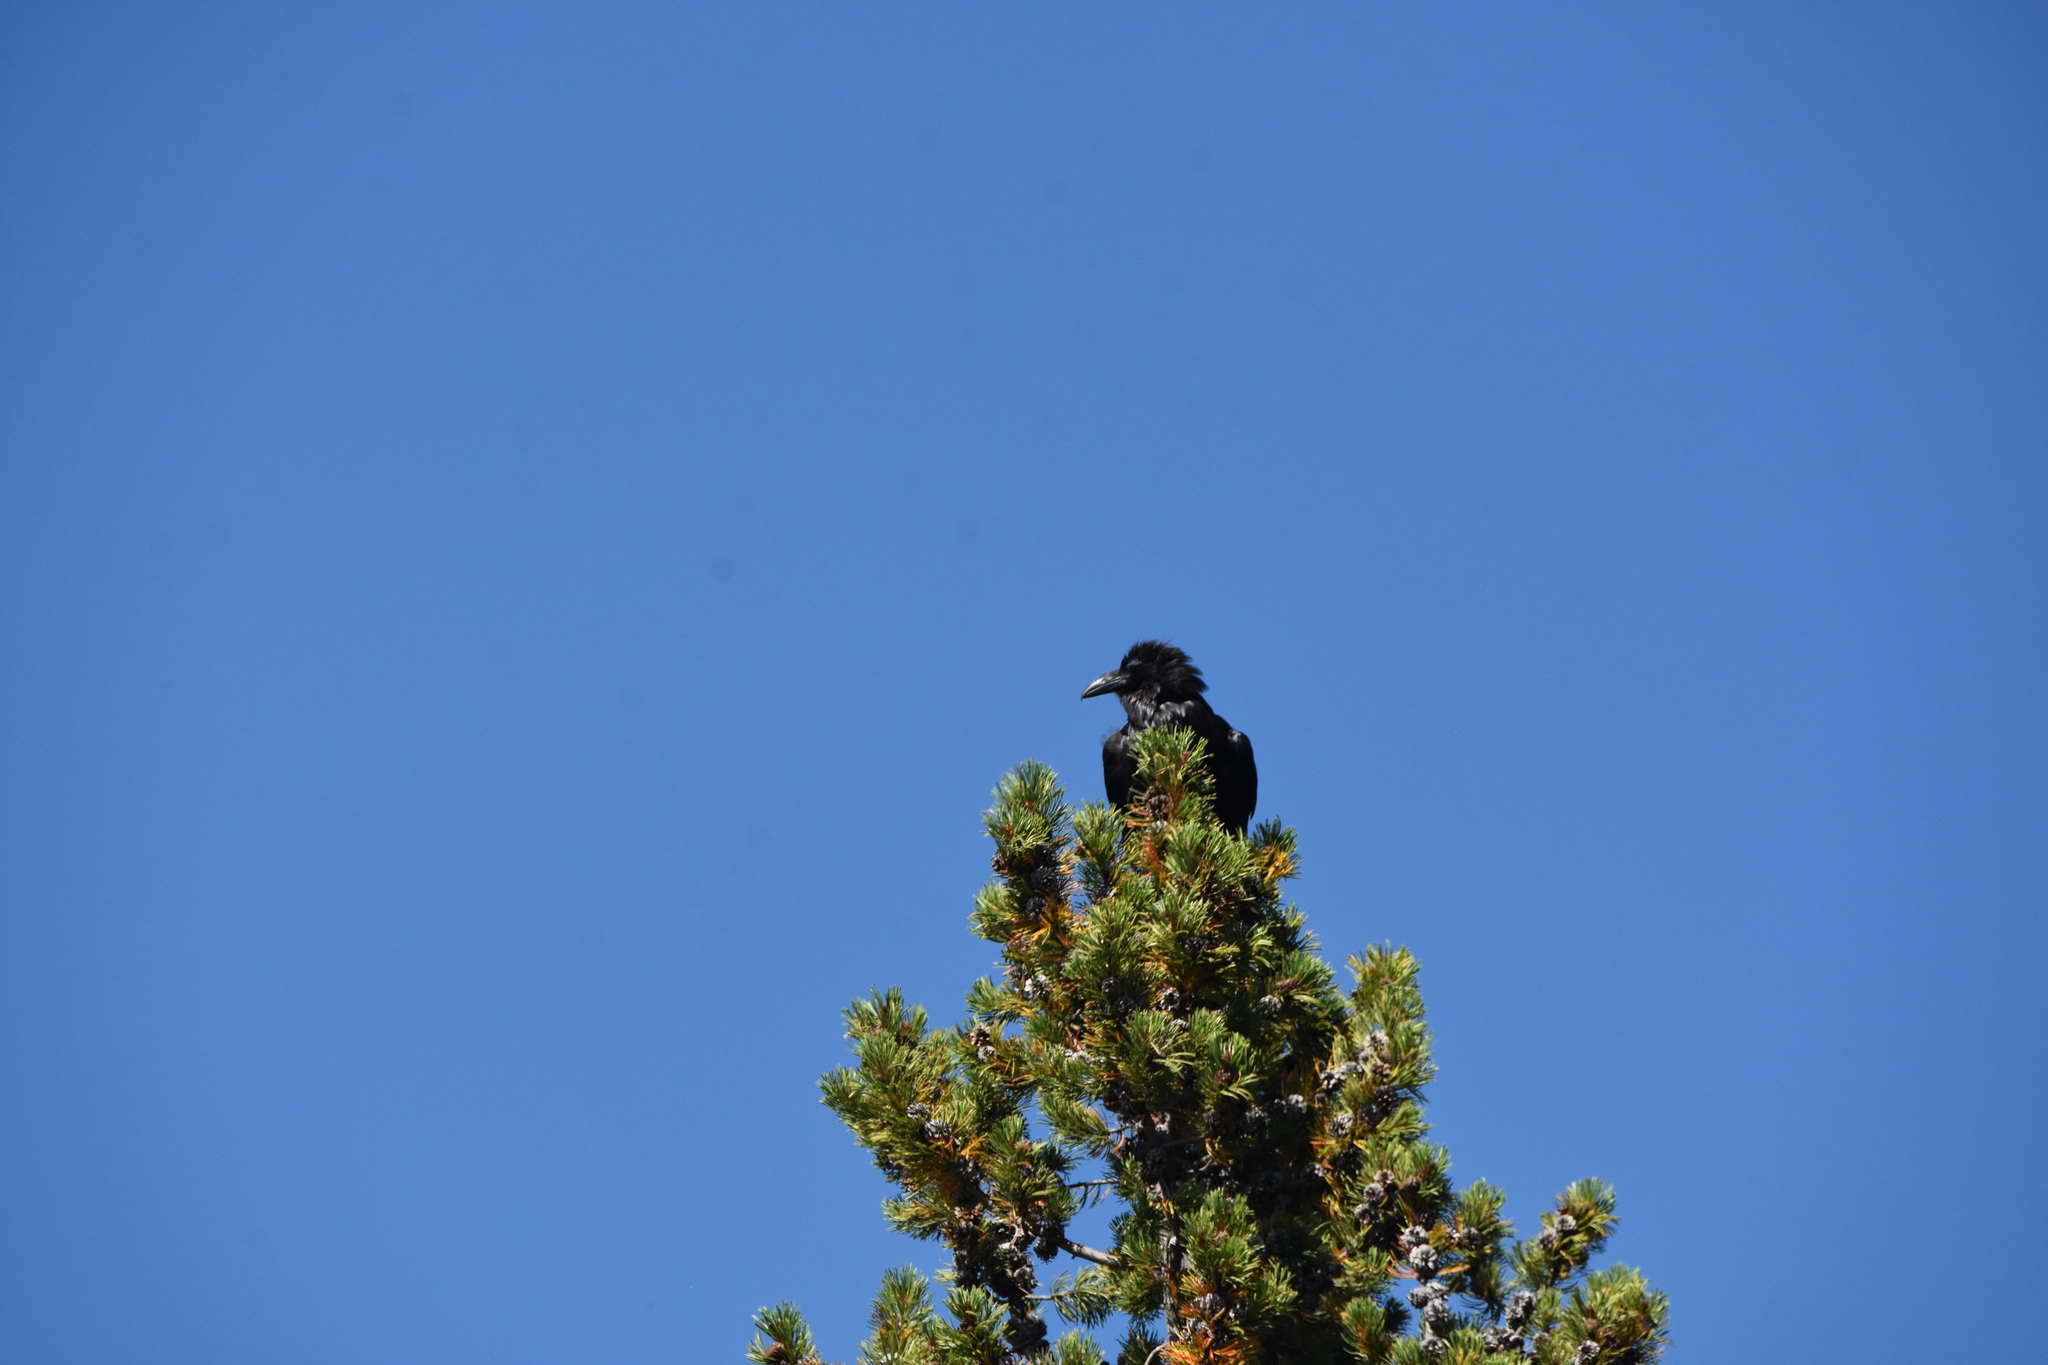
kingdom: Animalia
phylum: Chordata
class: Aves
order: Passeriformes
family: Corvidae
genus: Corvus
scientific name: Corvus corax
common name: Common raven
